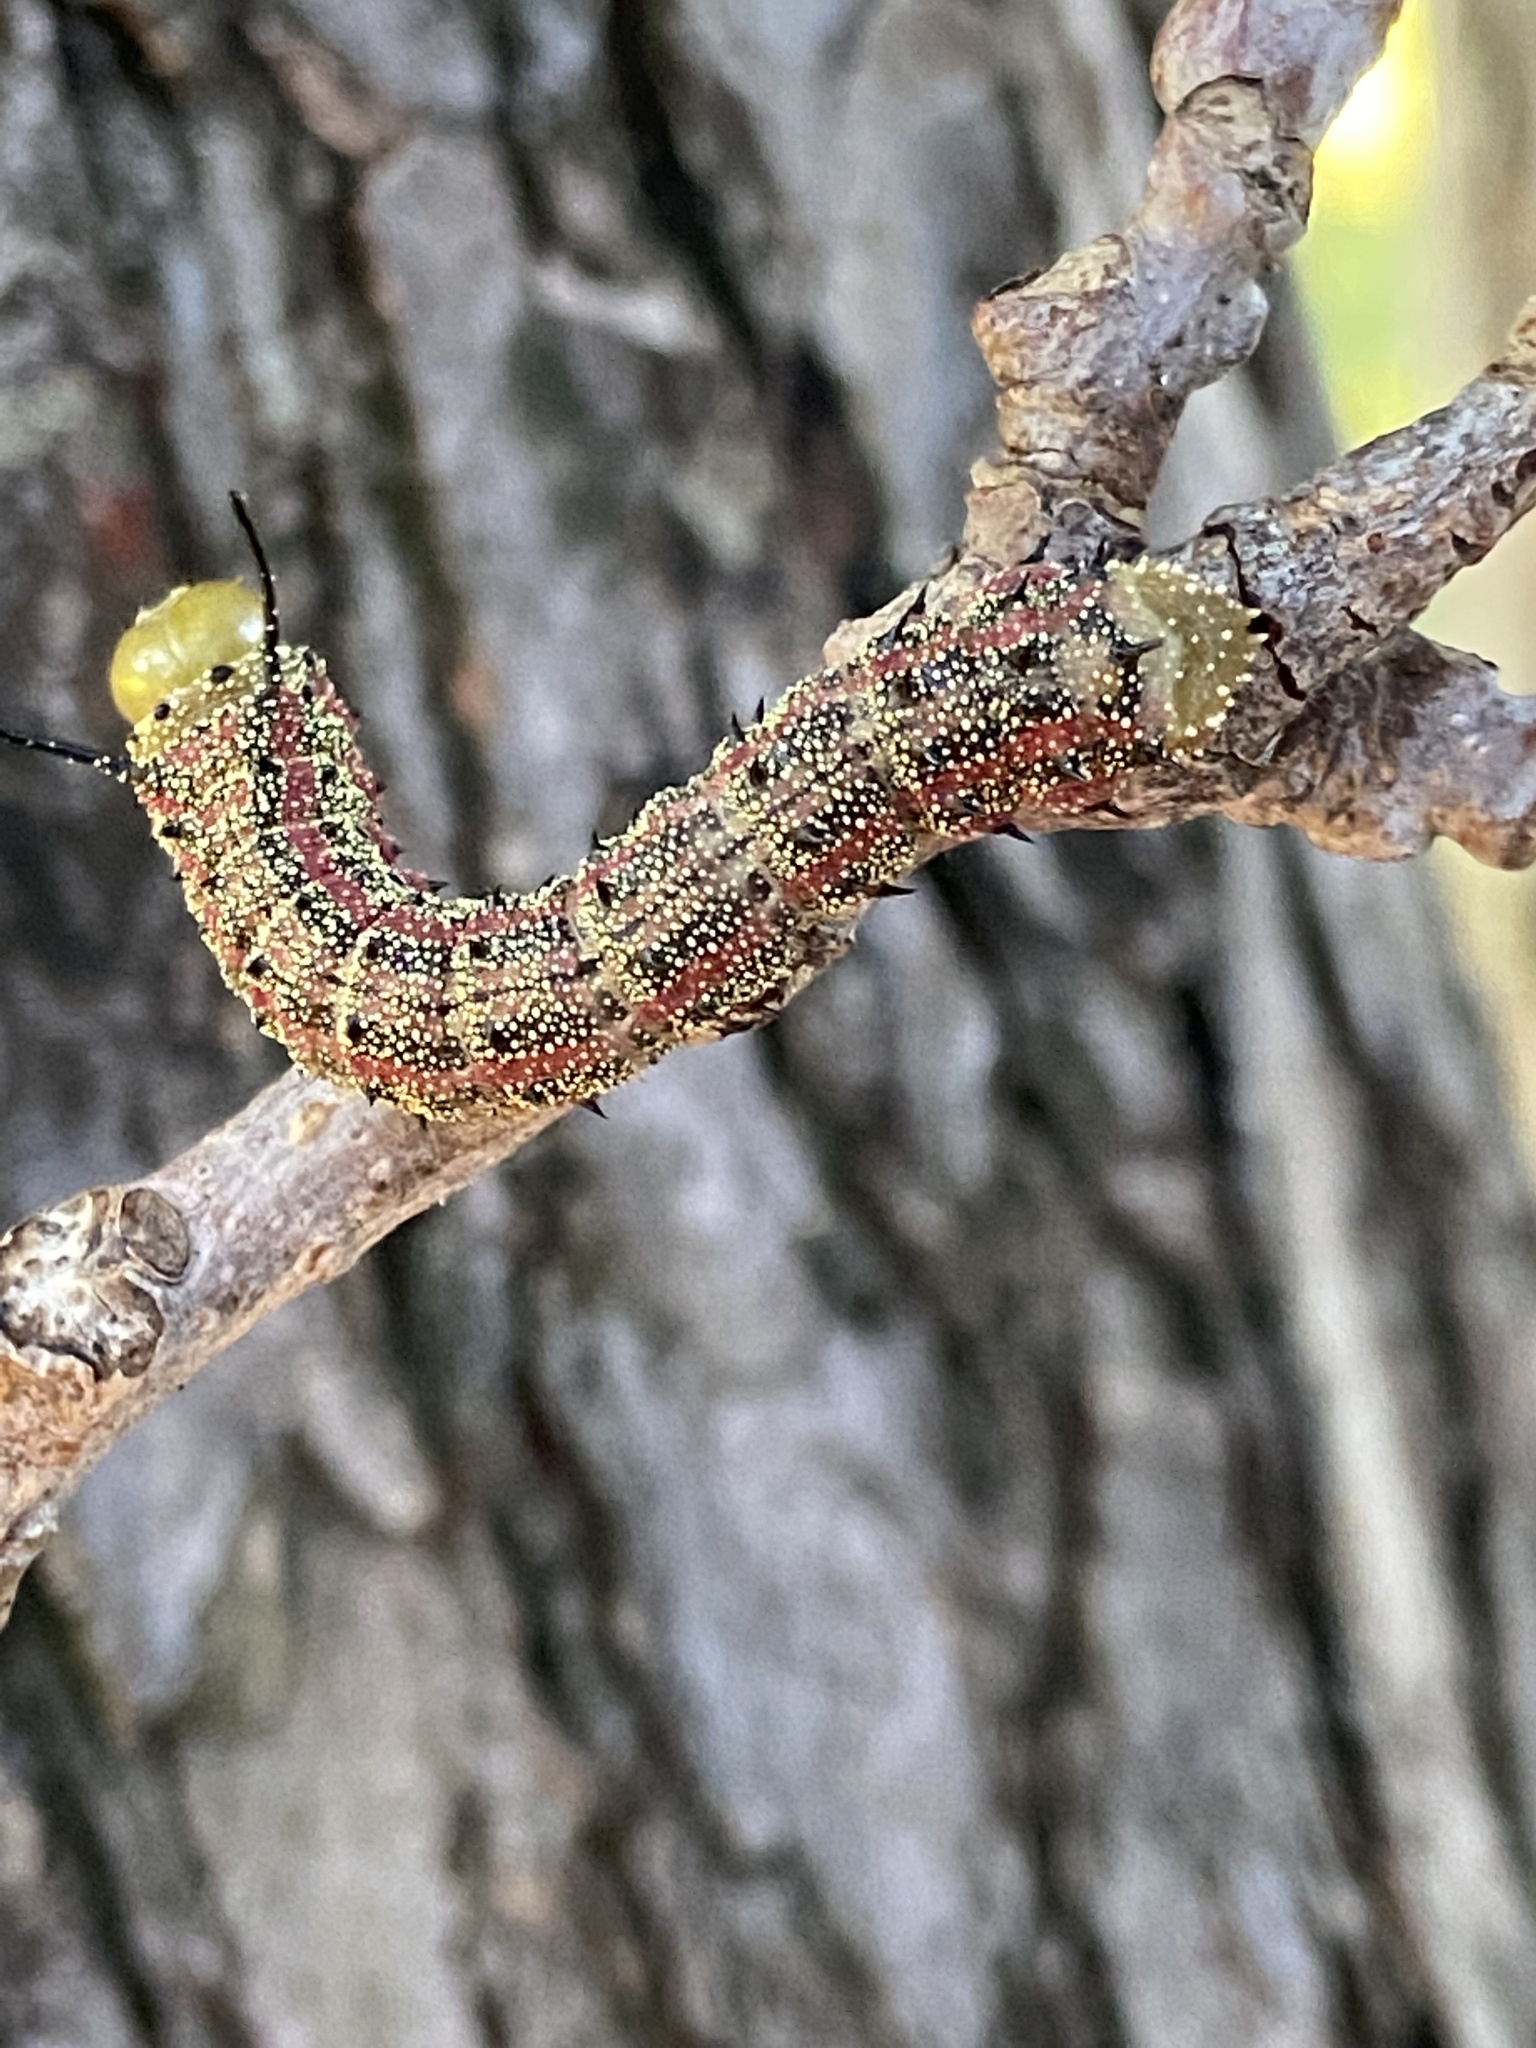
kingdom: Animalia
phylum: Arthropoda
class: Insecta
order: Lepidoptera
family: Saturniidae
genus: Anisota
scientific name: Anisota virginiensis
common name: Pink striped oakworm moth
